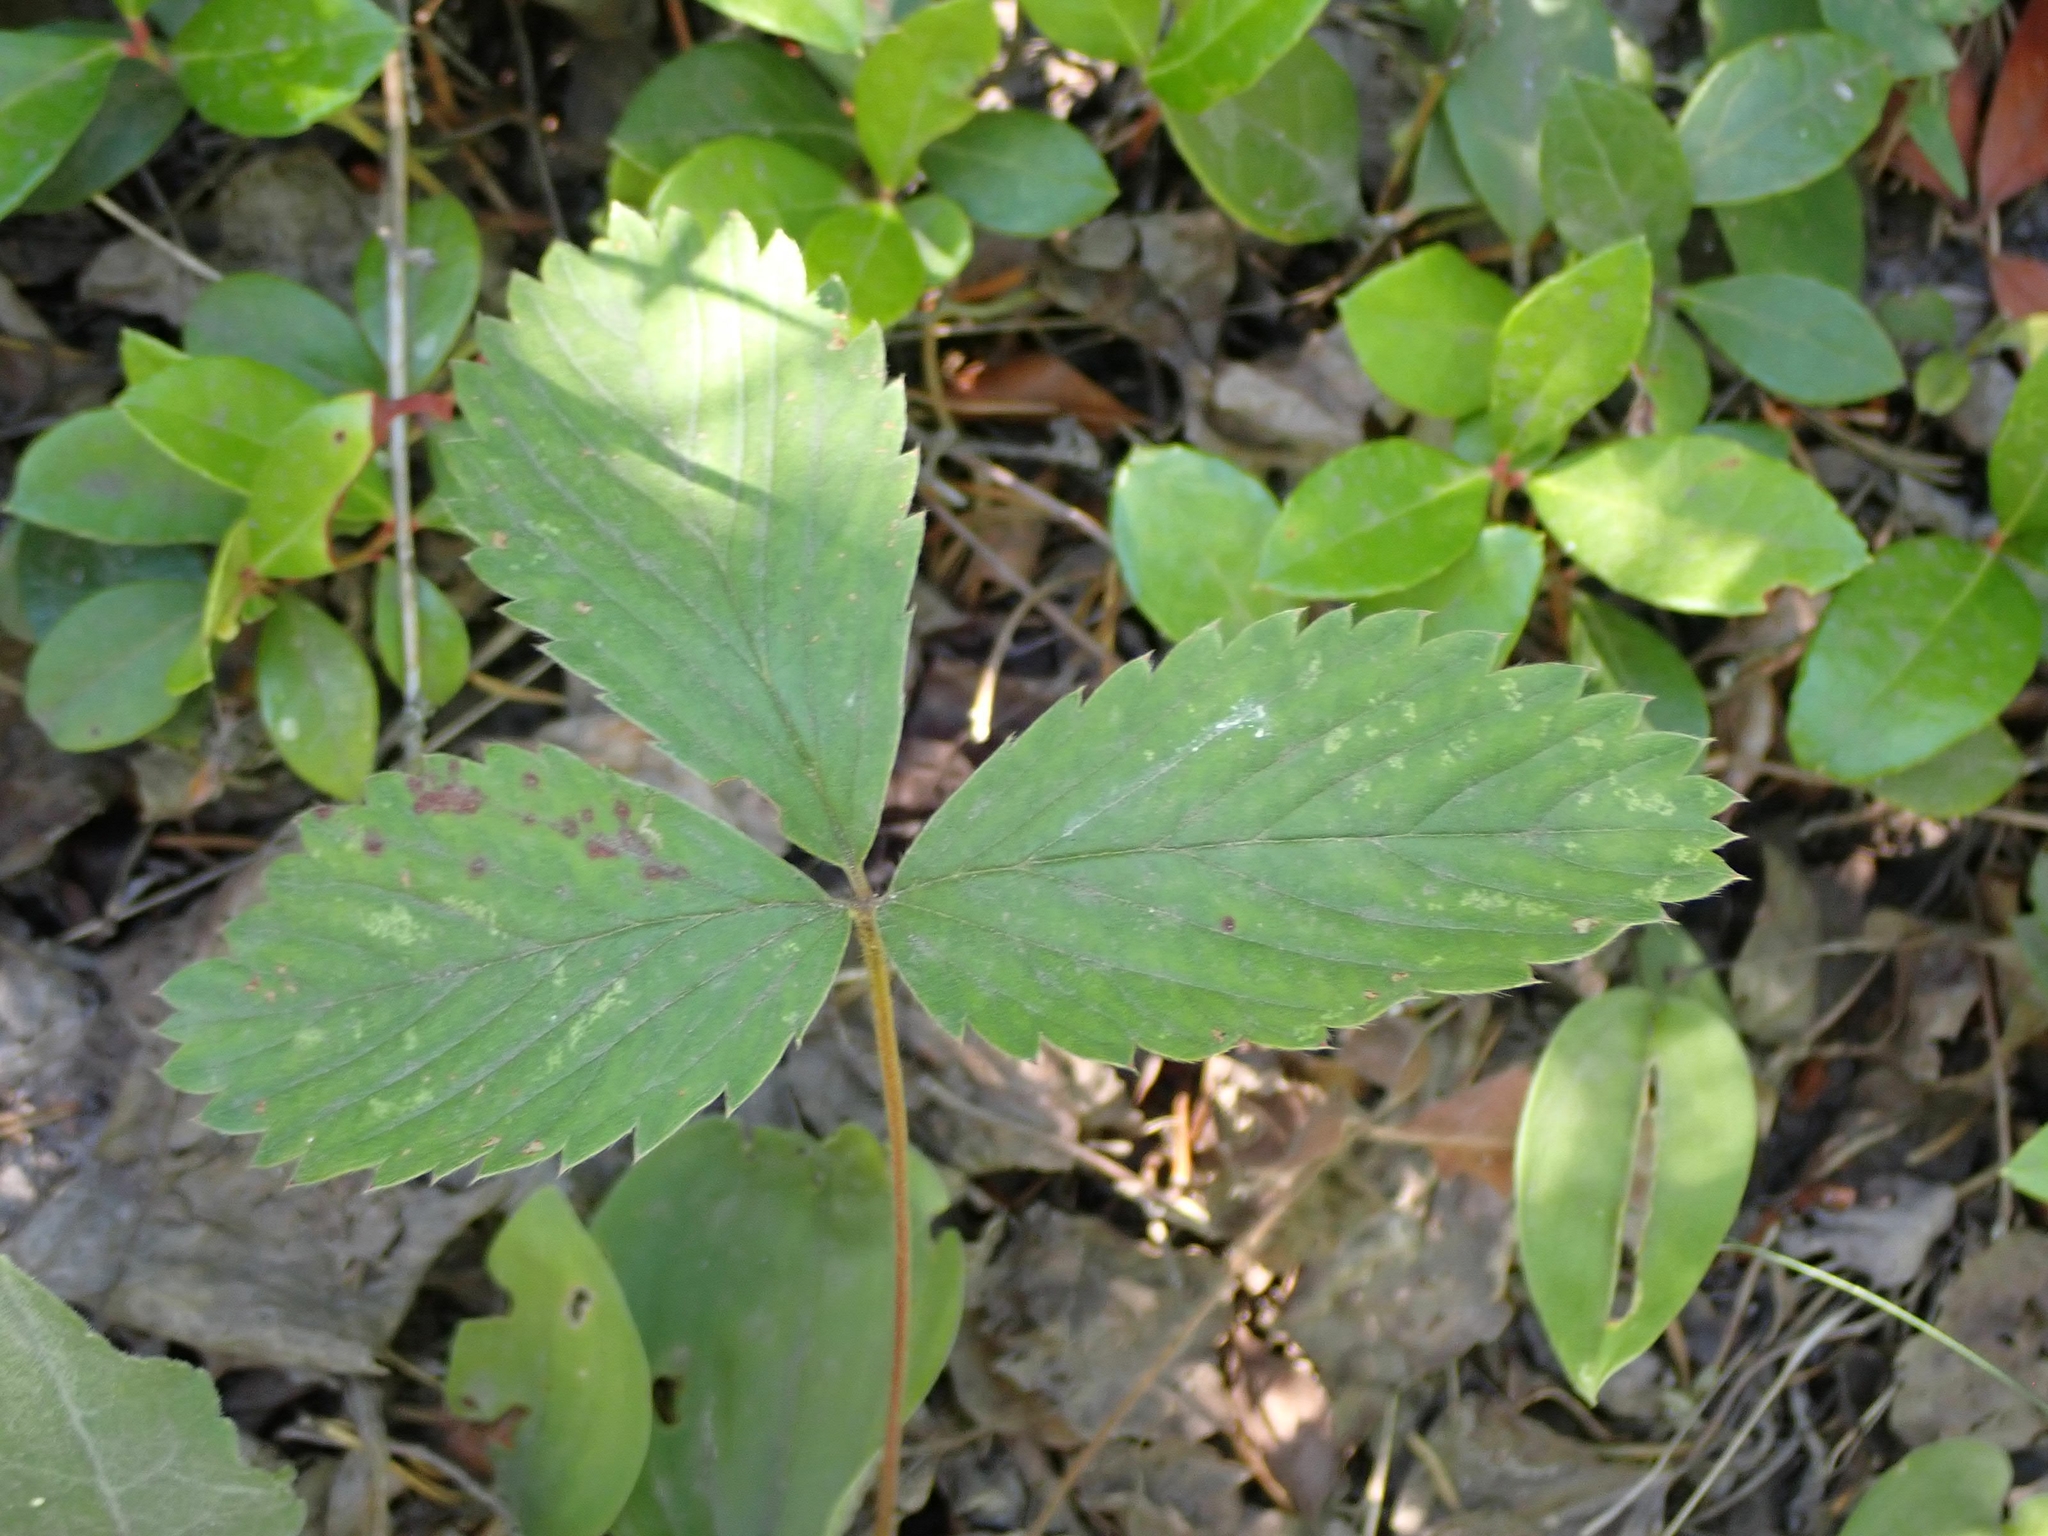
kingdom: Plantae
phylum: Tracheophyta
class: Magnoliopsida
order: Rosales
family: Rosaceae
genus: Fragaria
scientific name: Fragaria virginiana
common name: Thickleaved wild strawberry
